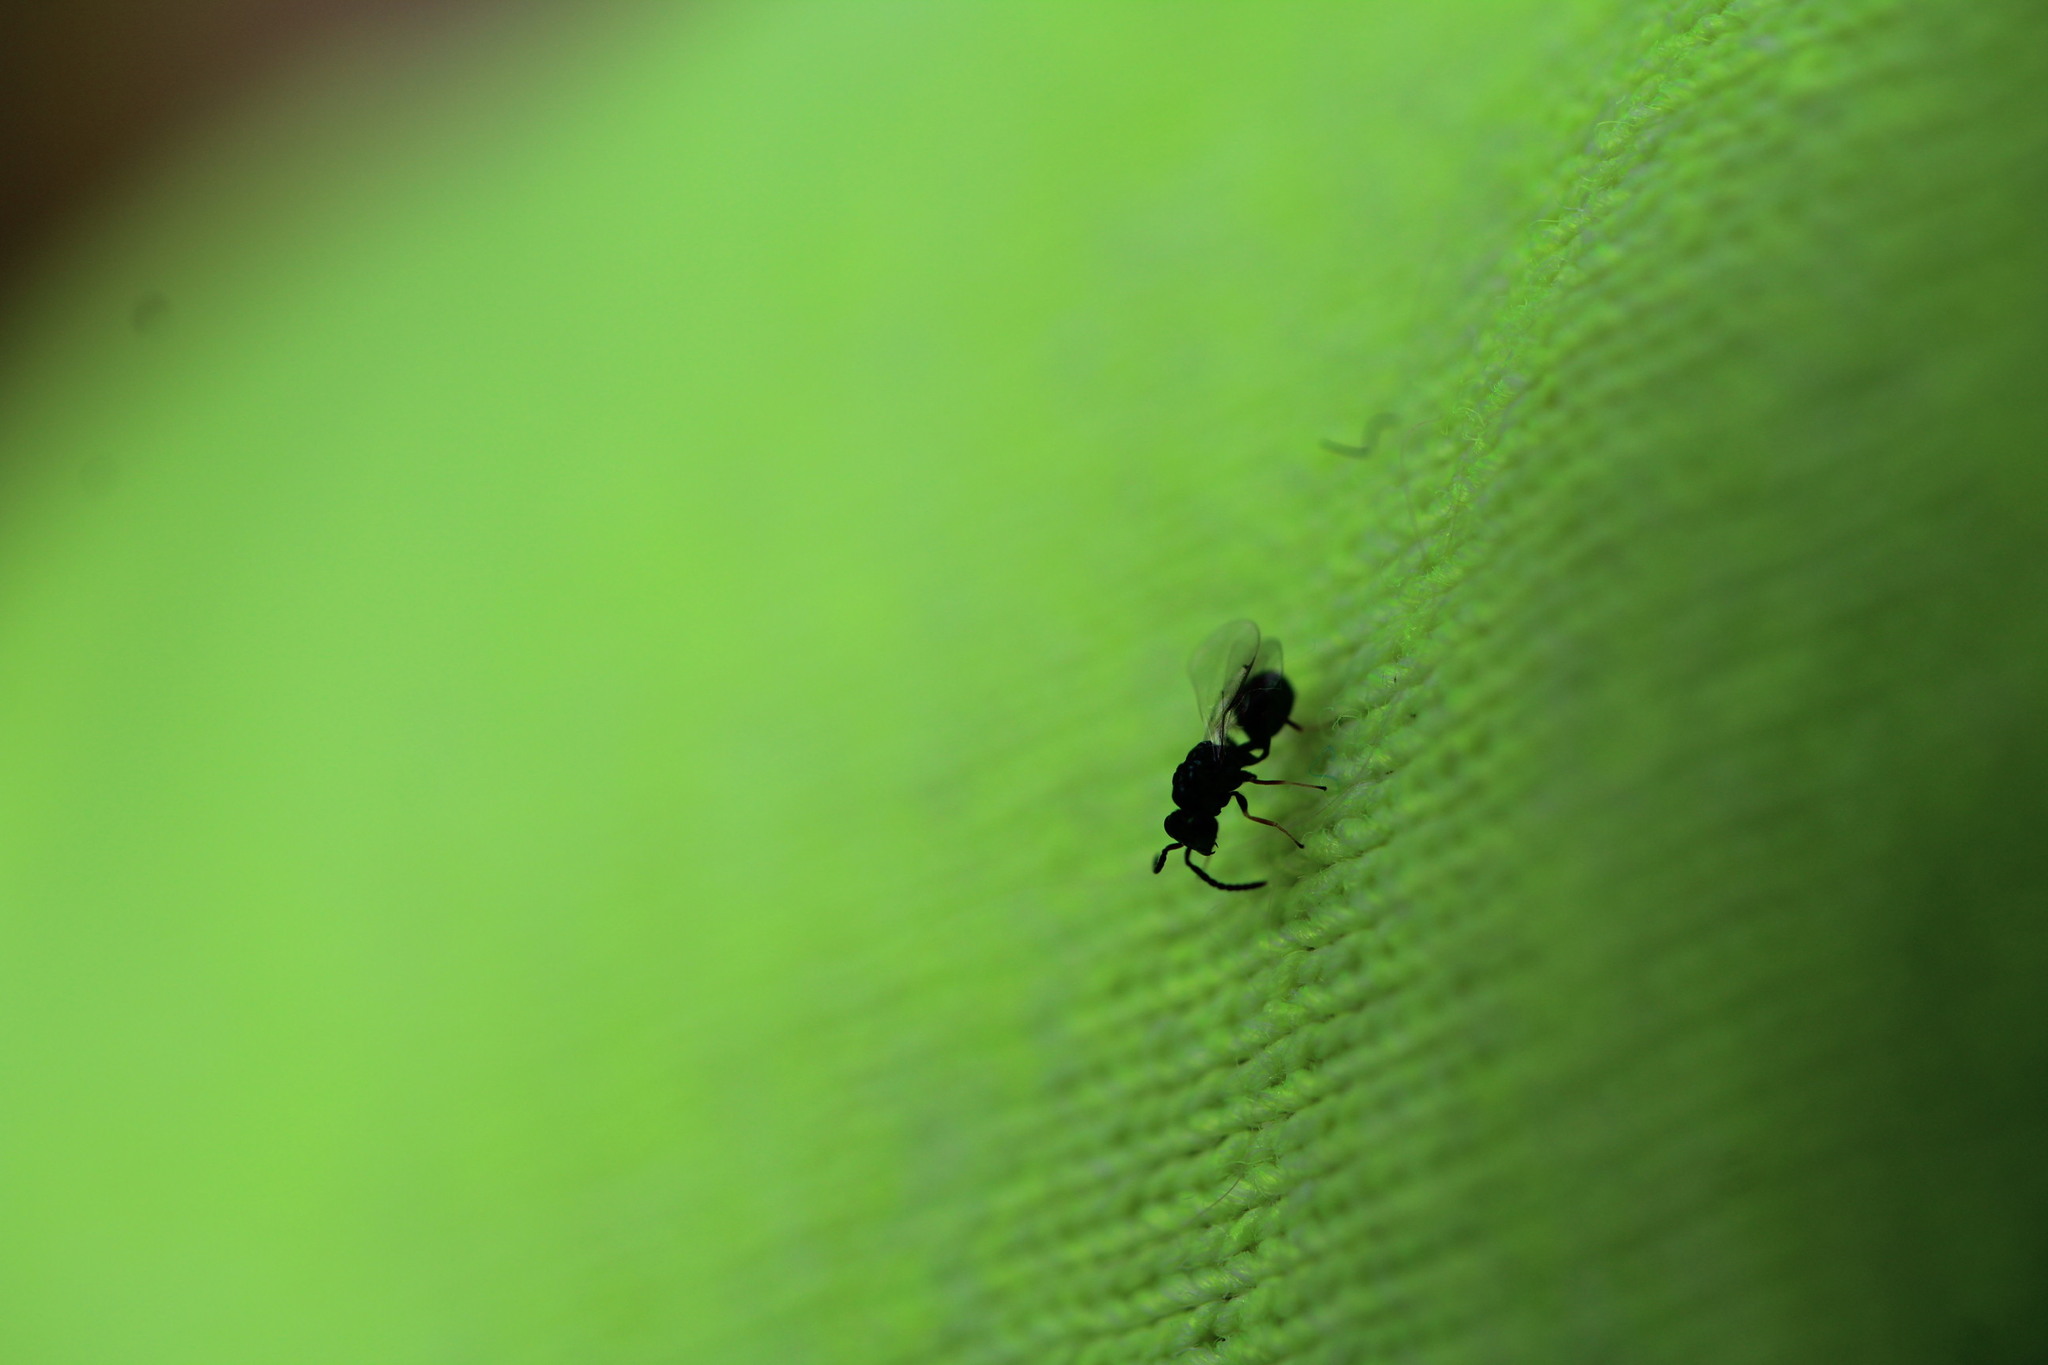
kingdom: Animalia
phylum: Arthropoda
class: Insecta
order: Hymenoptera
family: Eucharitidae
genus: Orasema
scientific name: Orasema coloradensis
